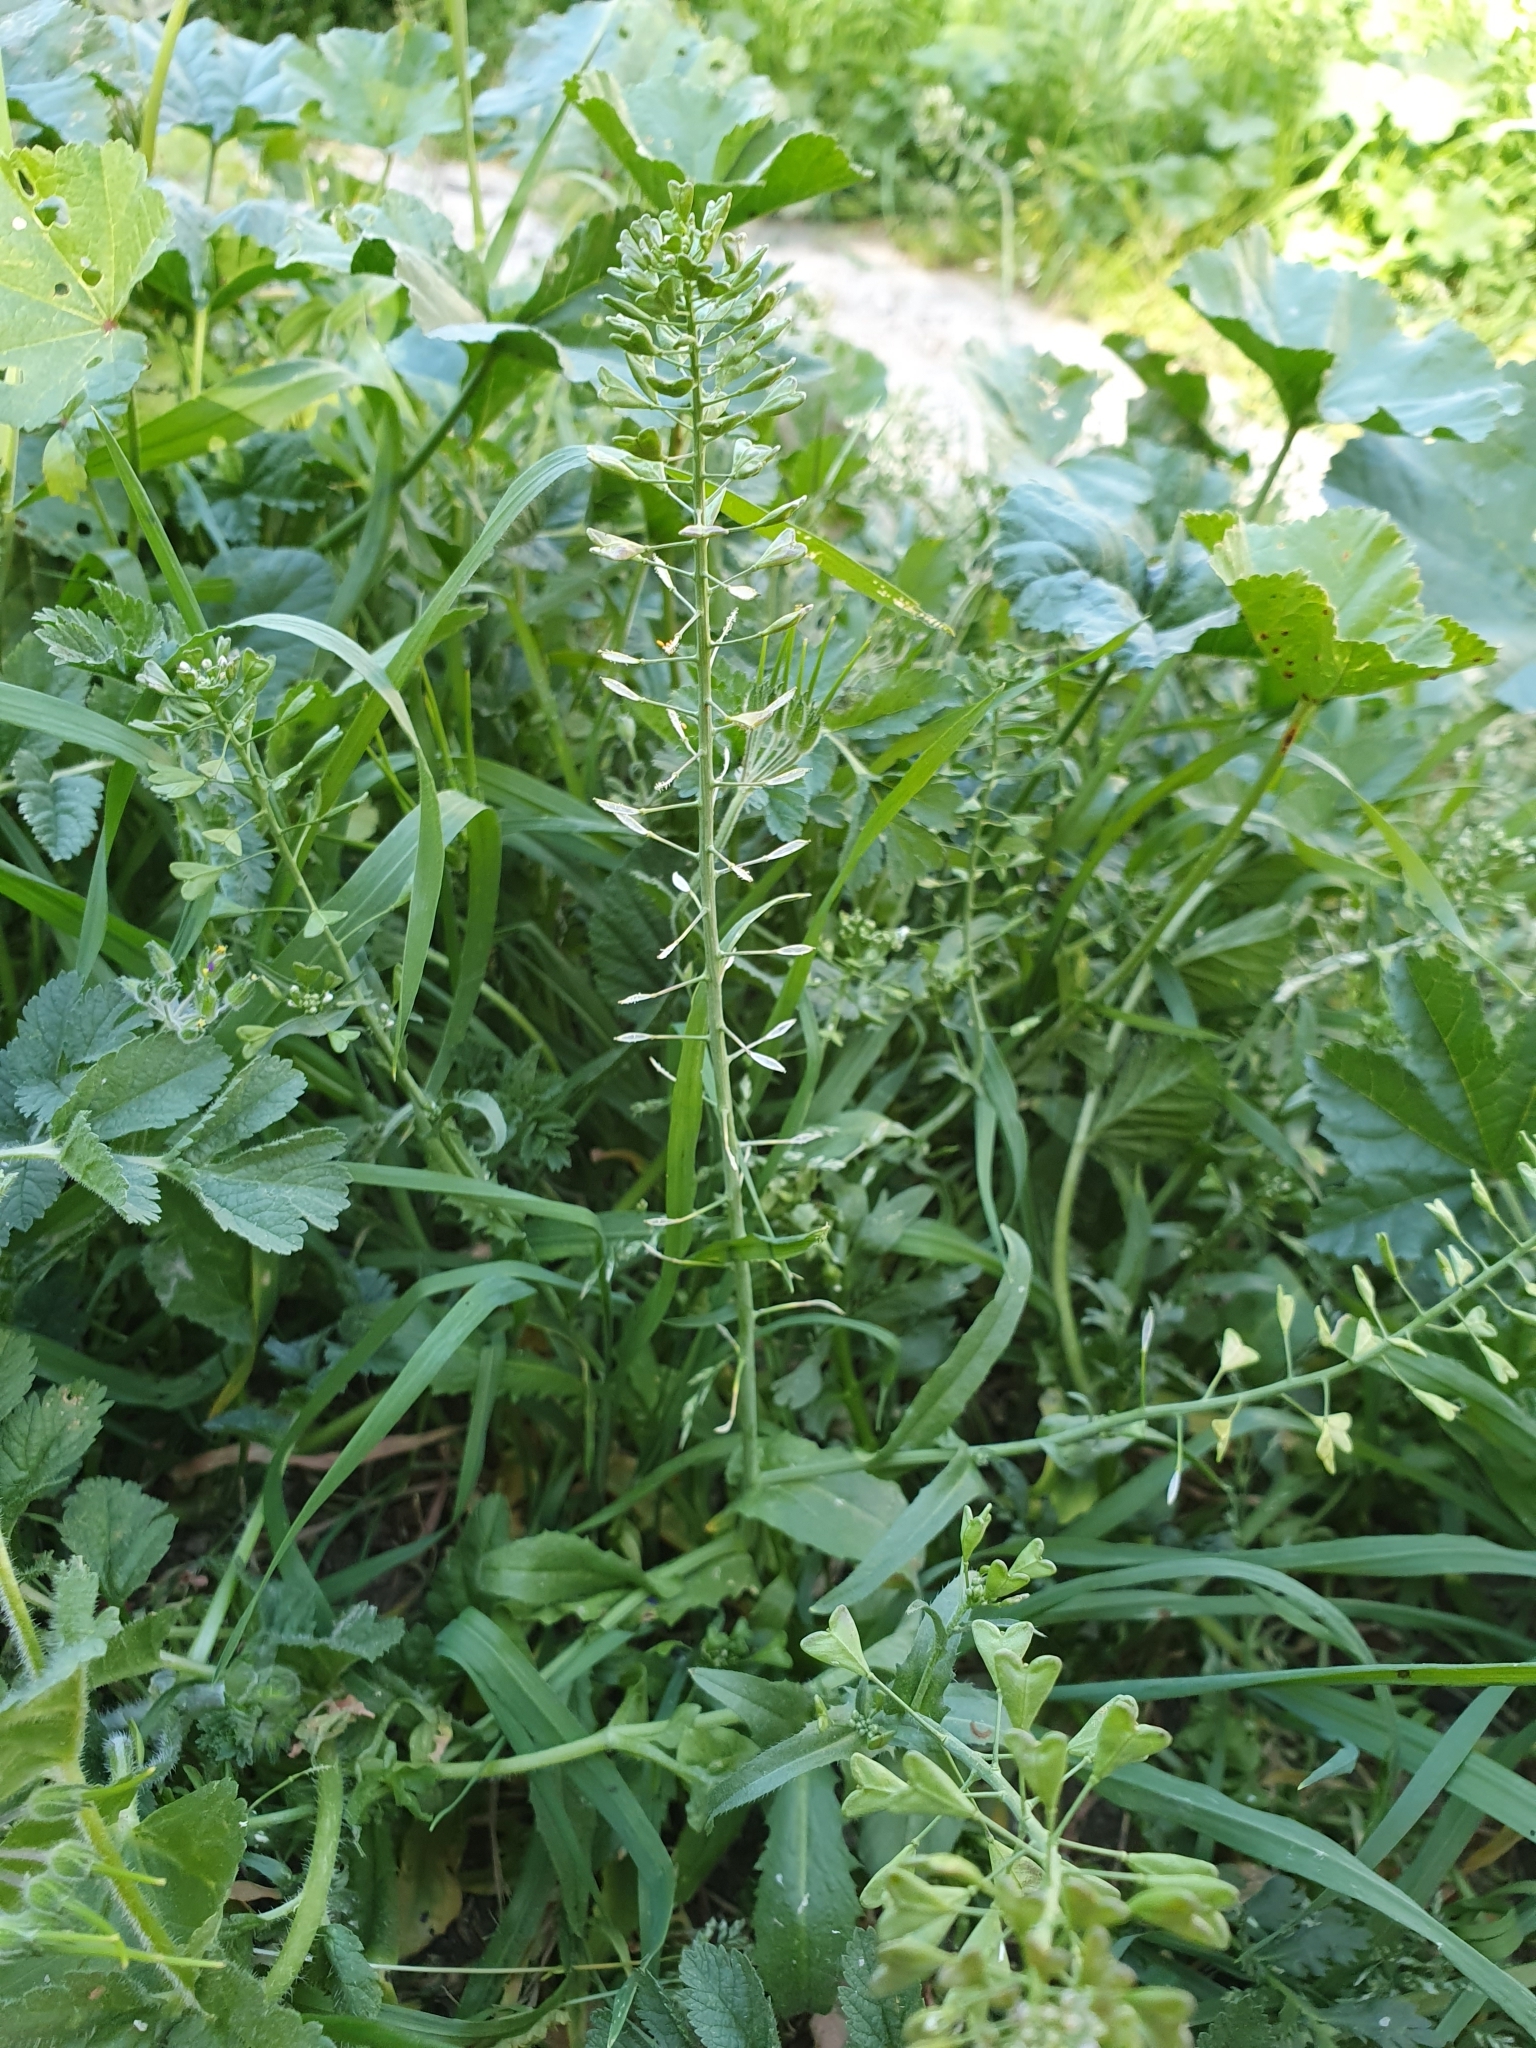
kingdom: Plantae
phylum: Tracheophyta
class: Magnoliopsida
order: Brassicales
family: Brassicaceae
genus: Capsella
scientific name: Capsella bursa-pastoris
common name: Shepherd's purse
